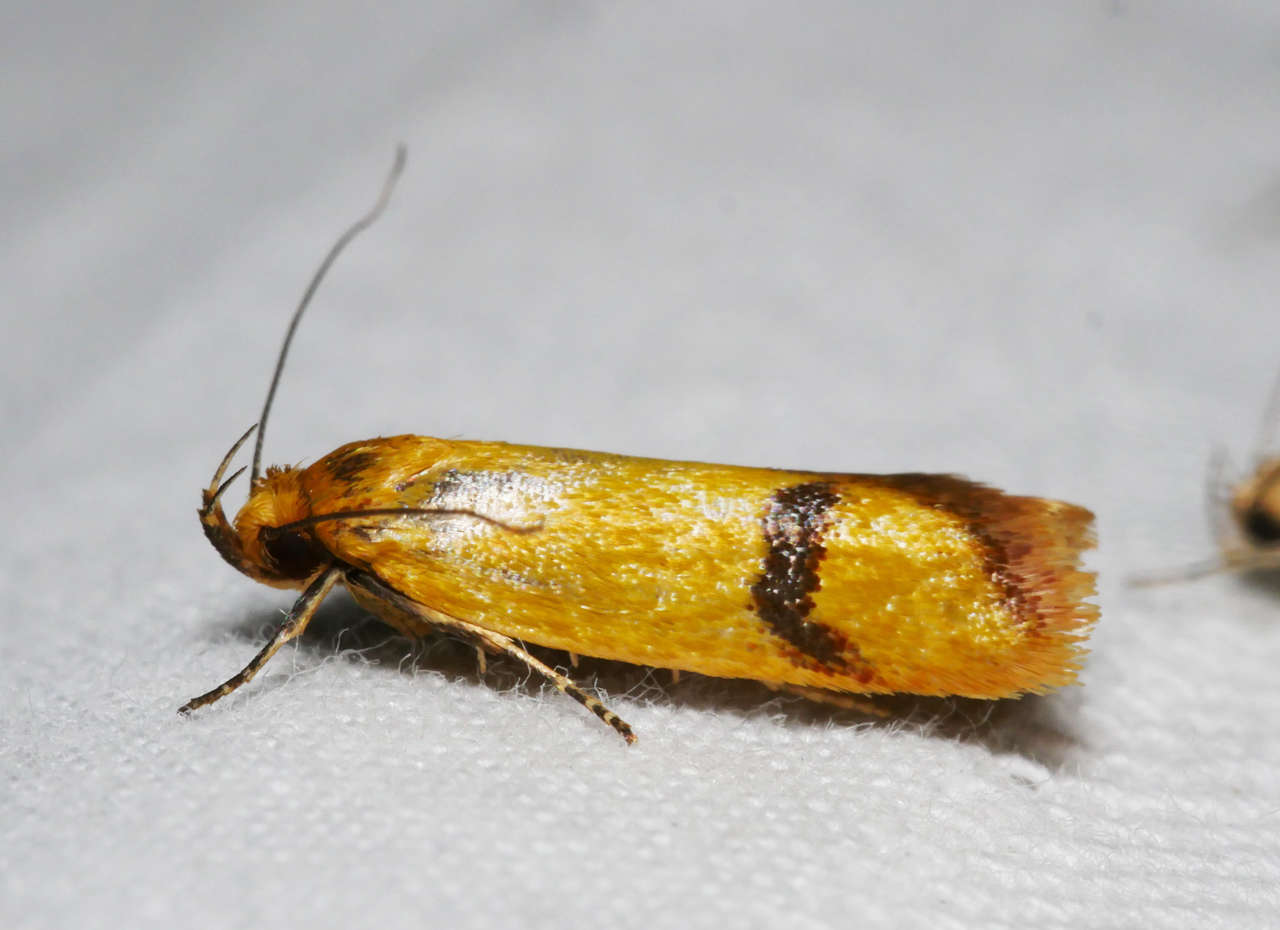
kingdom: Animalia
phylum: Arthropoda
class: Insecta
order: Lepidoptera
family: Oecophoridae
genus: Plectobela
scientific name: Plectobela zanclotoma
